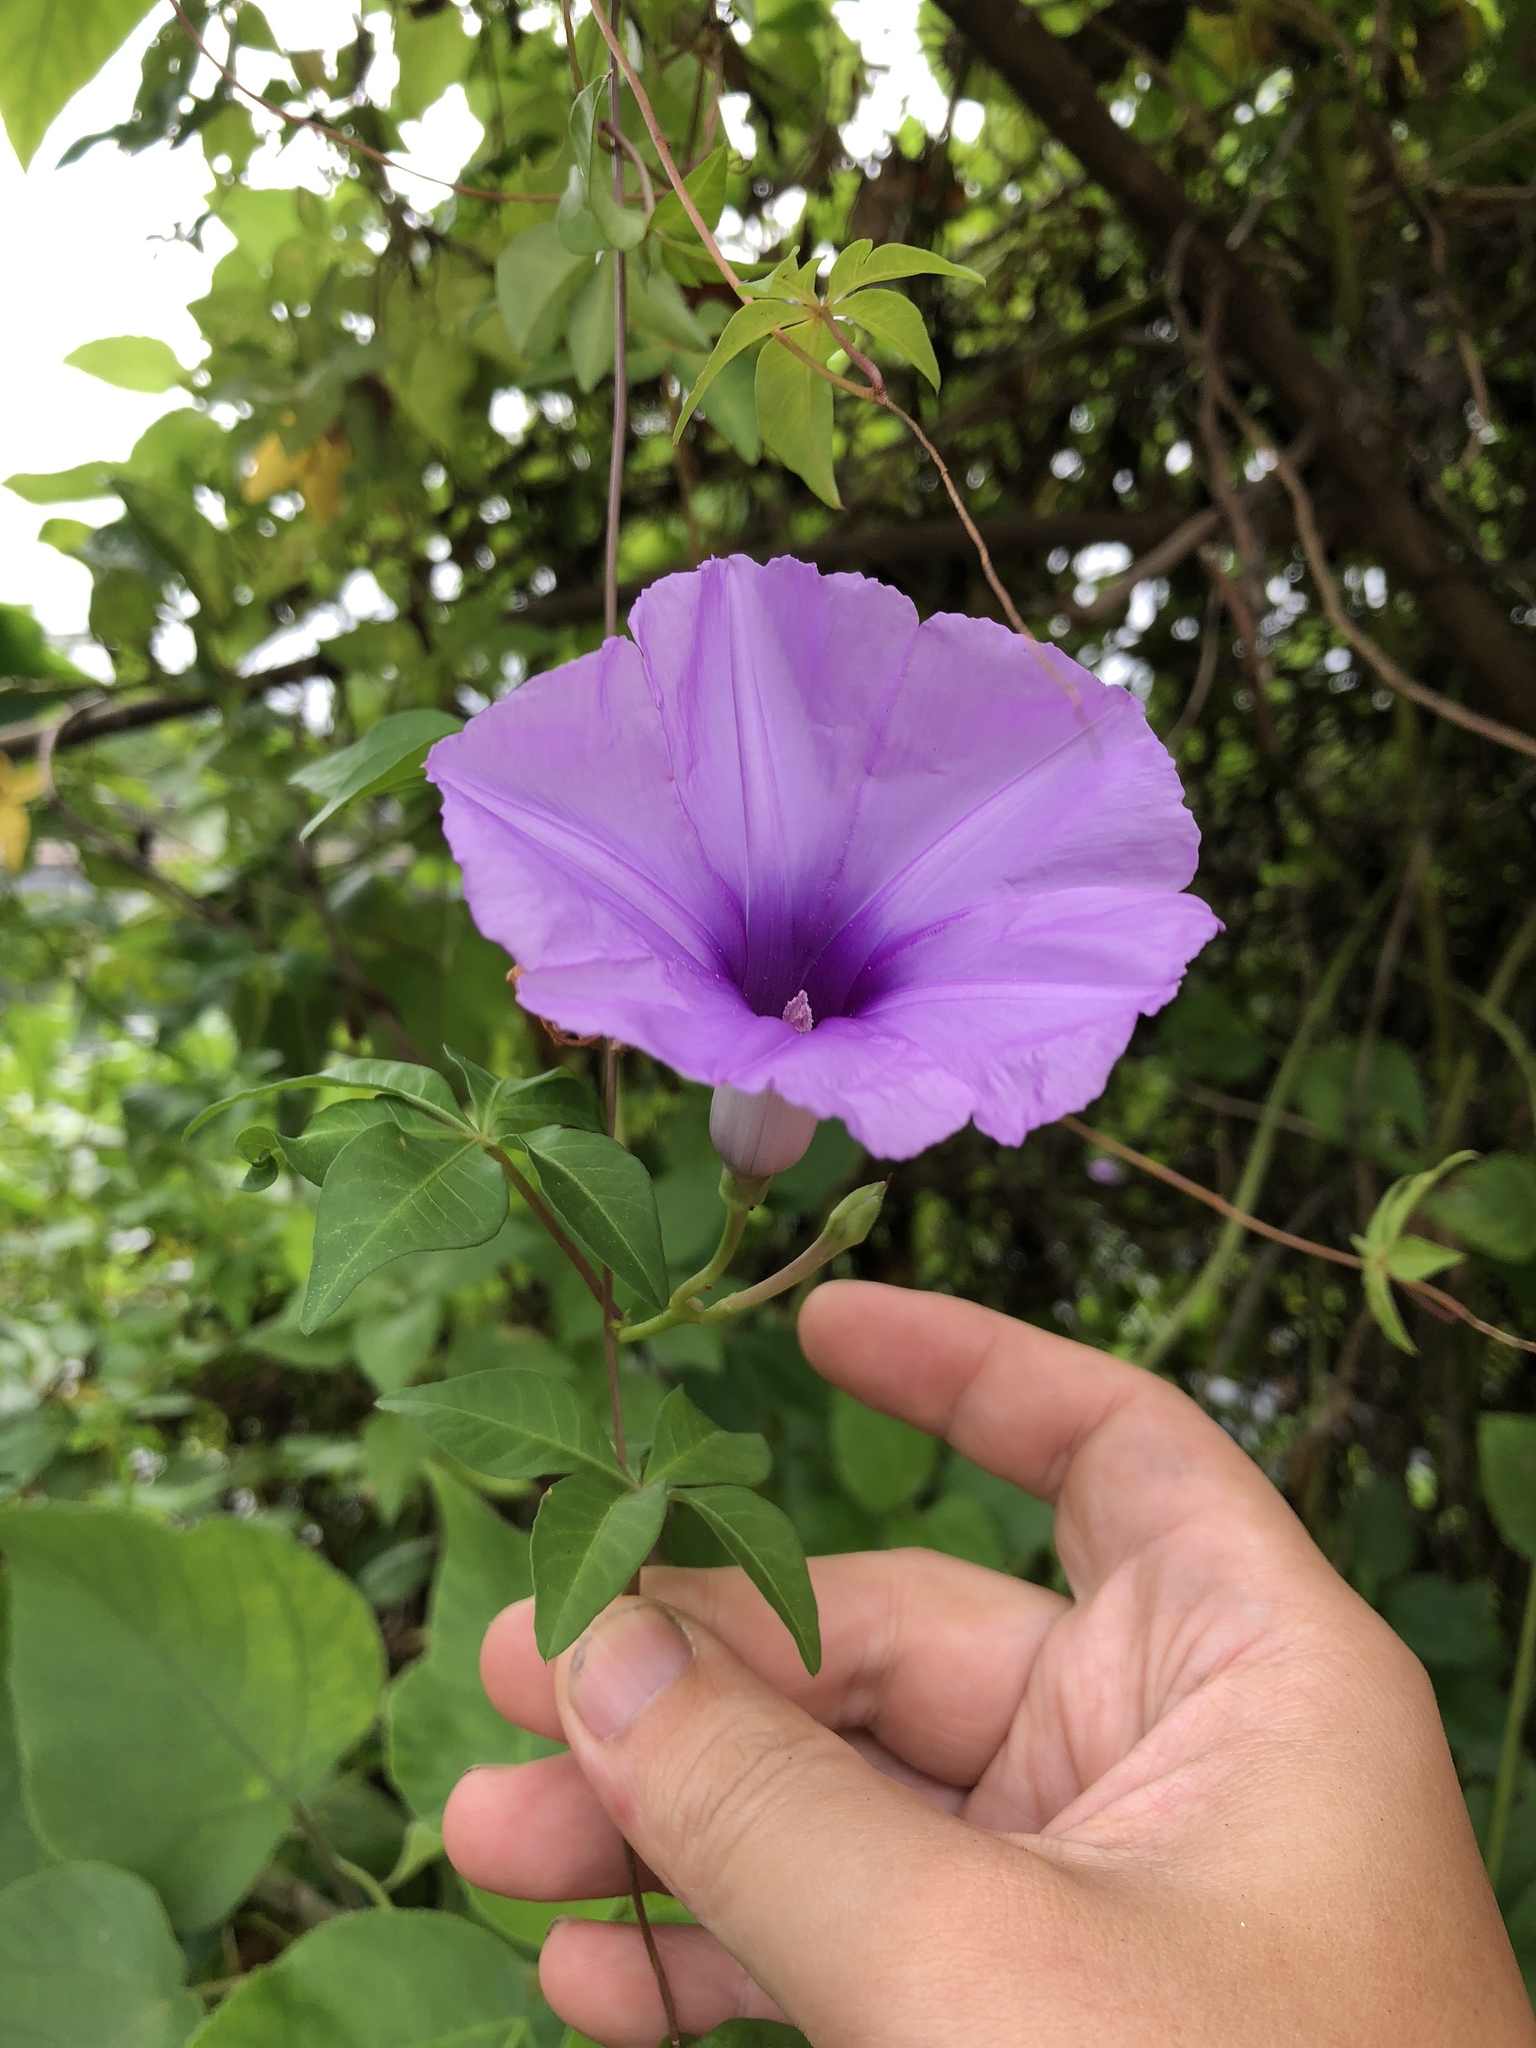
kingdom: Plantae
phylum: Tracheophyta
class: Magnoliopsida
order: Solanales
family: Convolvulaceae
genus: Ipomoea
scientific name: Ipomoea cairica
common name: Mile a minute vine
